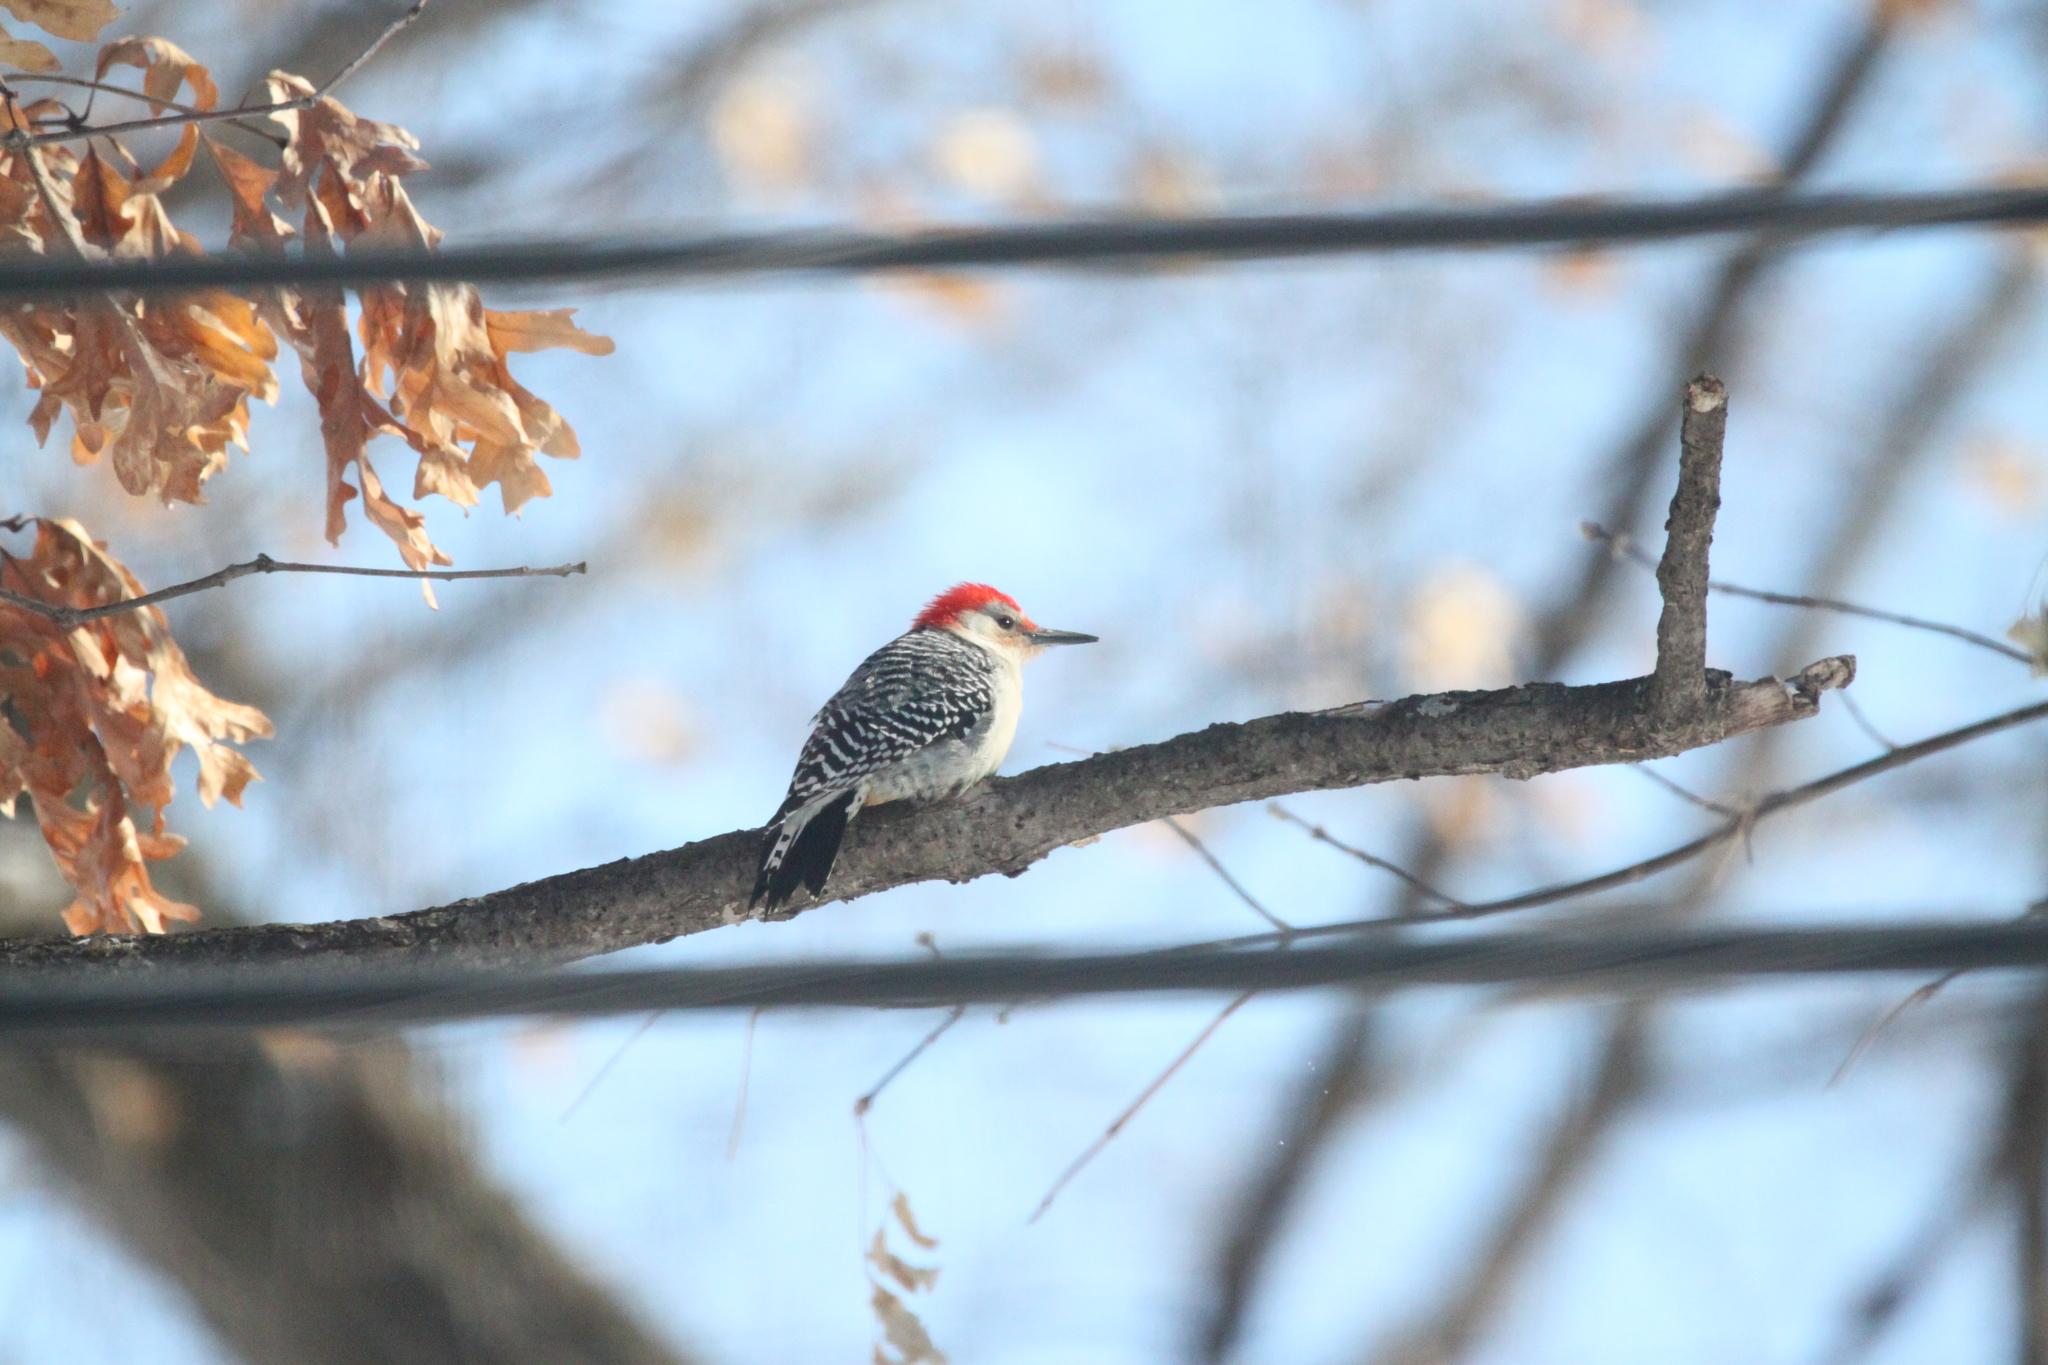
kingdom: Animalia
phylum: Chordata
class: Aves
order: Piciformes
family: Picidae
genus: Melanerpes
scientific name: Melanerpes carolinus
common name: Red-bellied woodpecker
